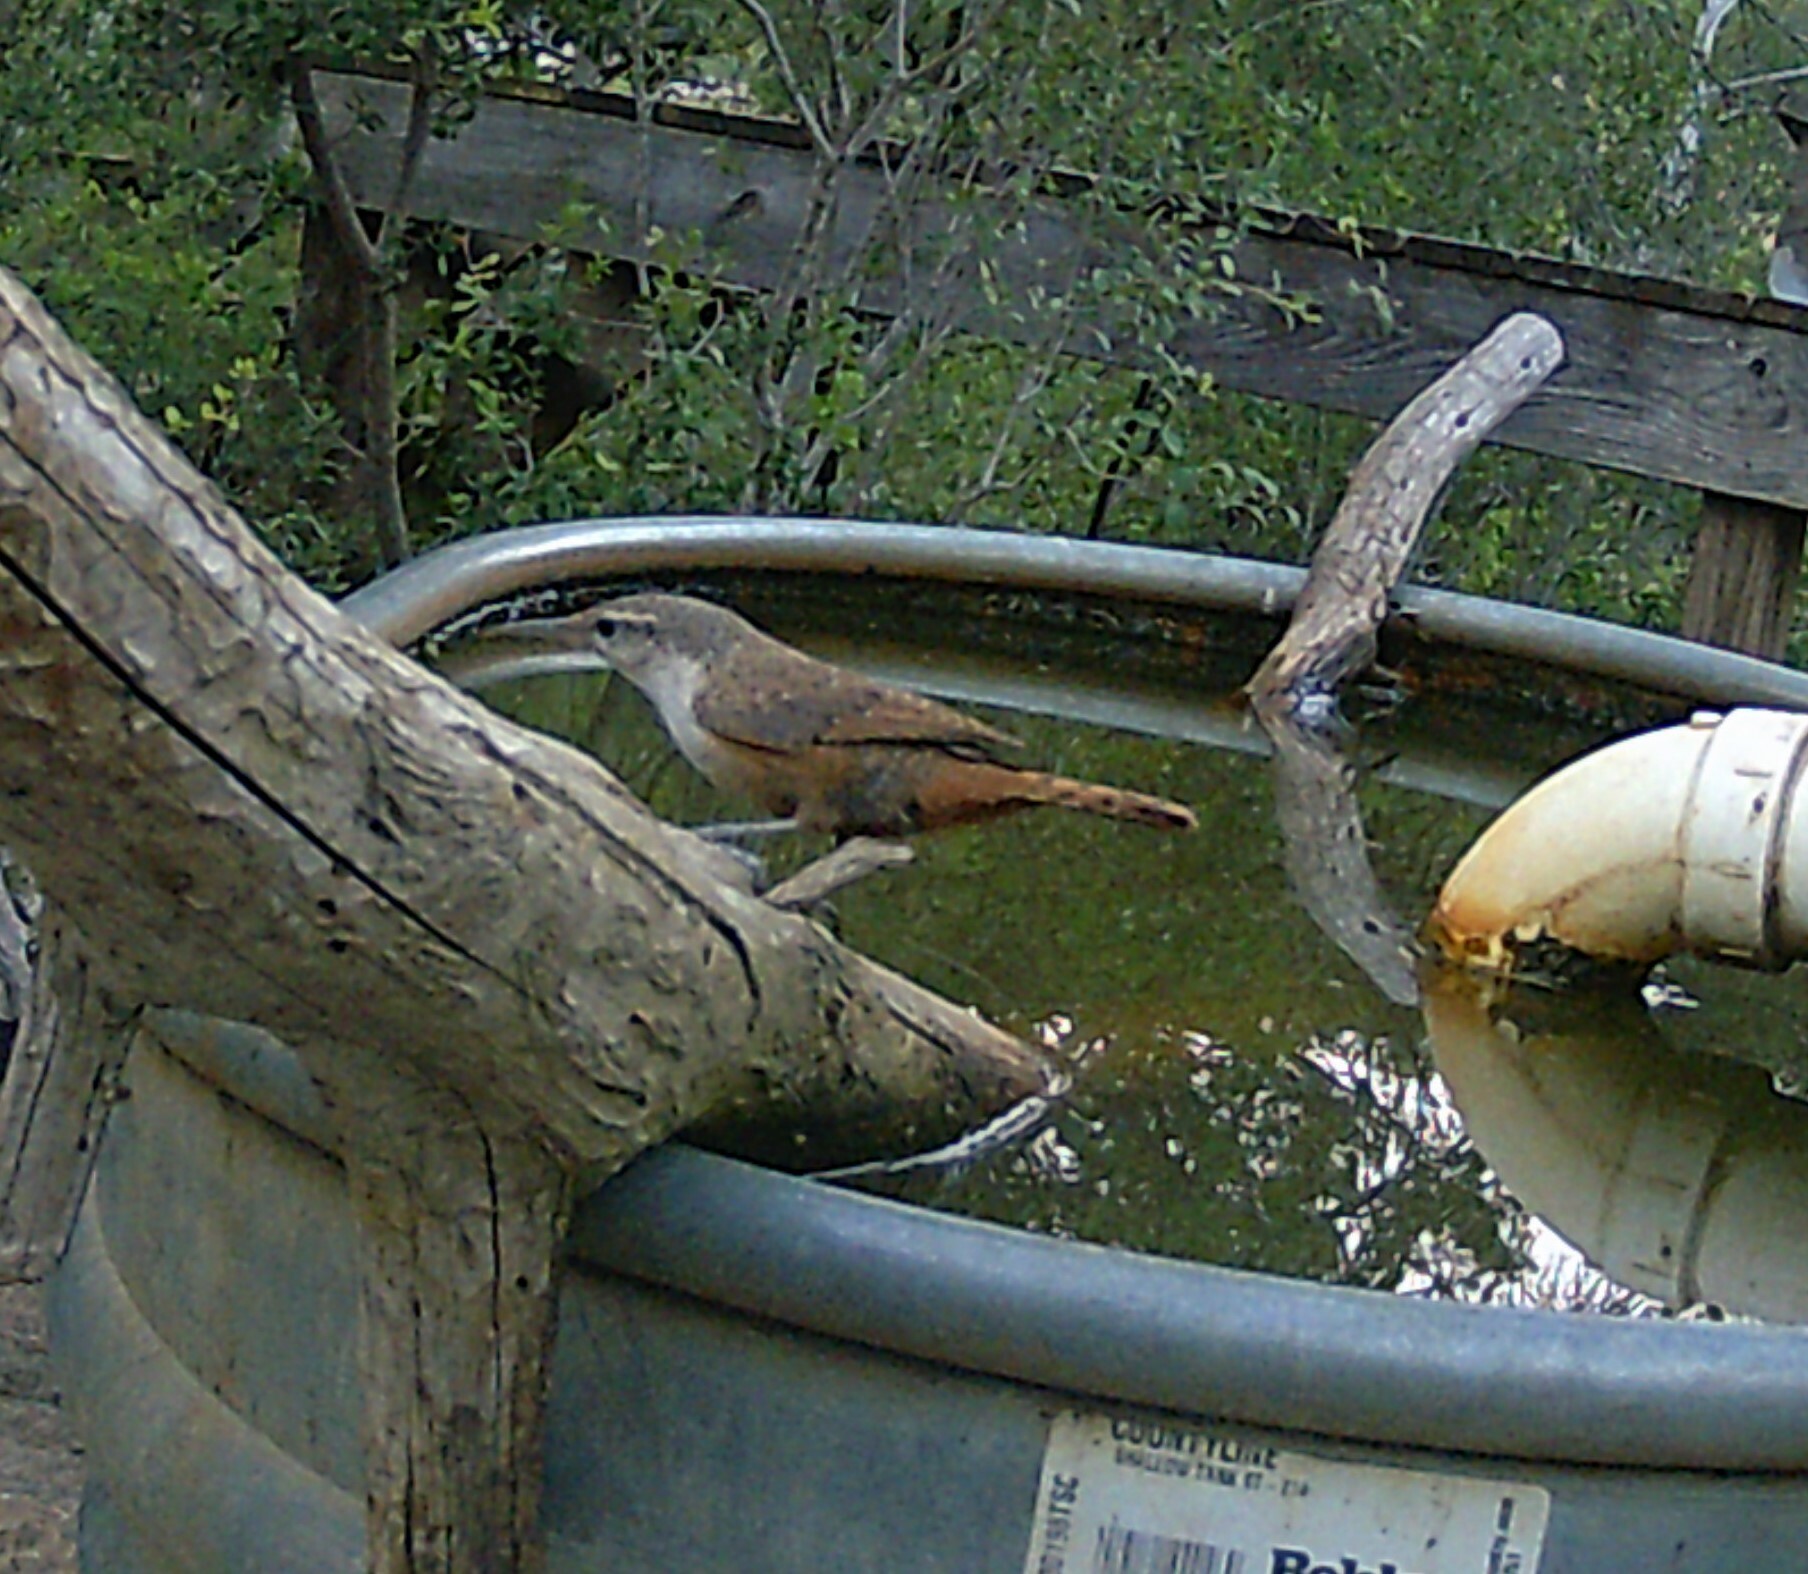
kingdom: Animalia
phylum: Chordata
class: Aves
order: Passeriformes
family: Troglodytidae
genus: Catherpes
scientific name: Catherpes mexicanus
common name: Canyon wren
